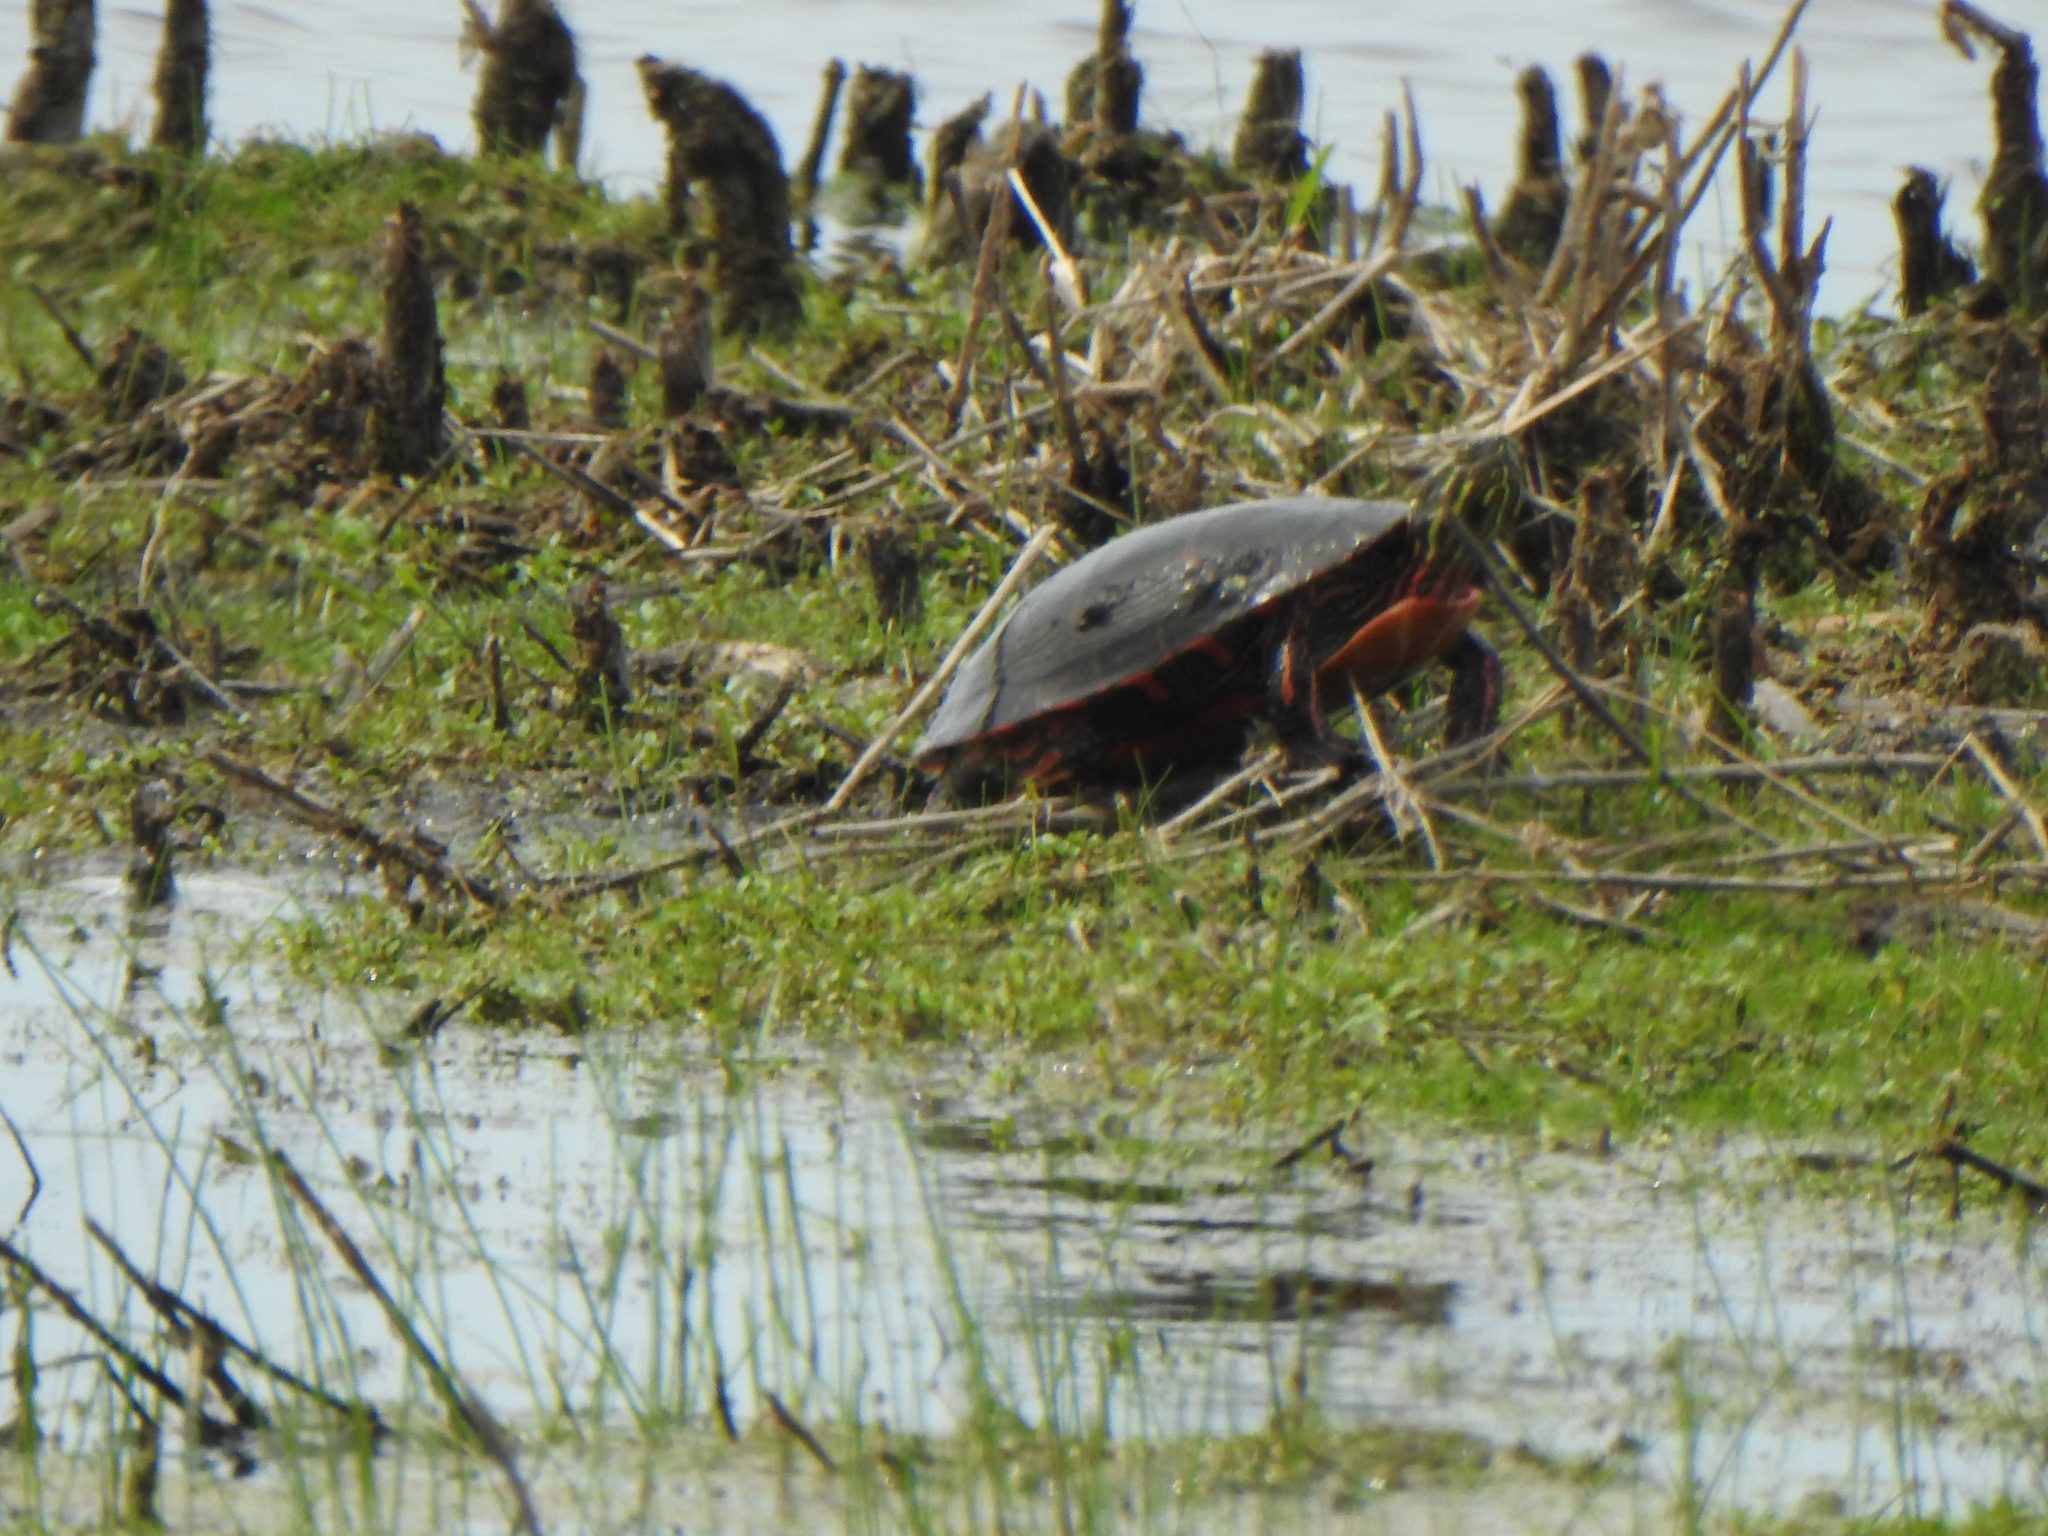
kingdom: Animalia
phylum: Chordata
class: Testudines
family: Emydidae
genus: Chrysemys
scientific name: Chrysemys picta
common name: Painted turtle
